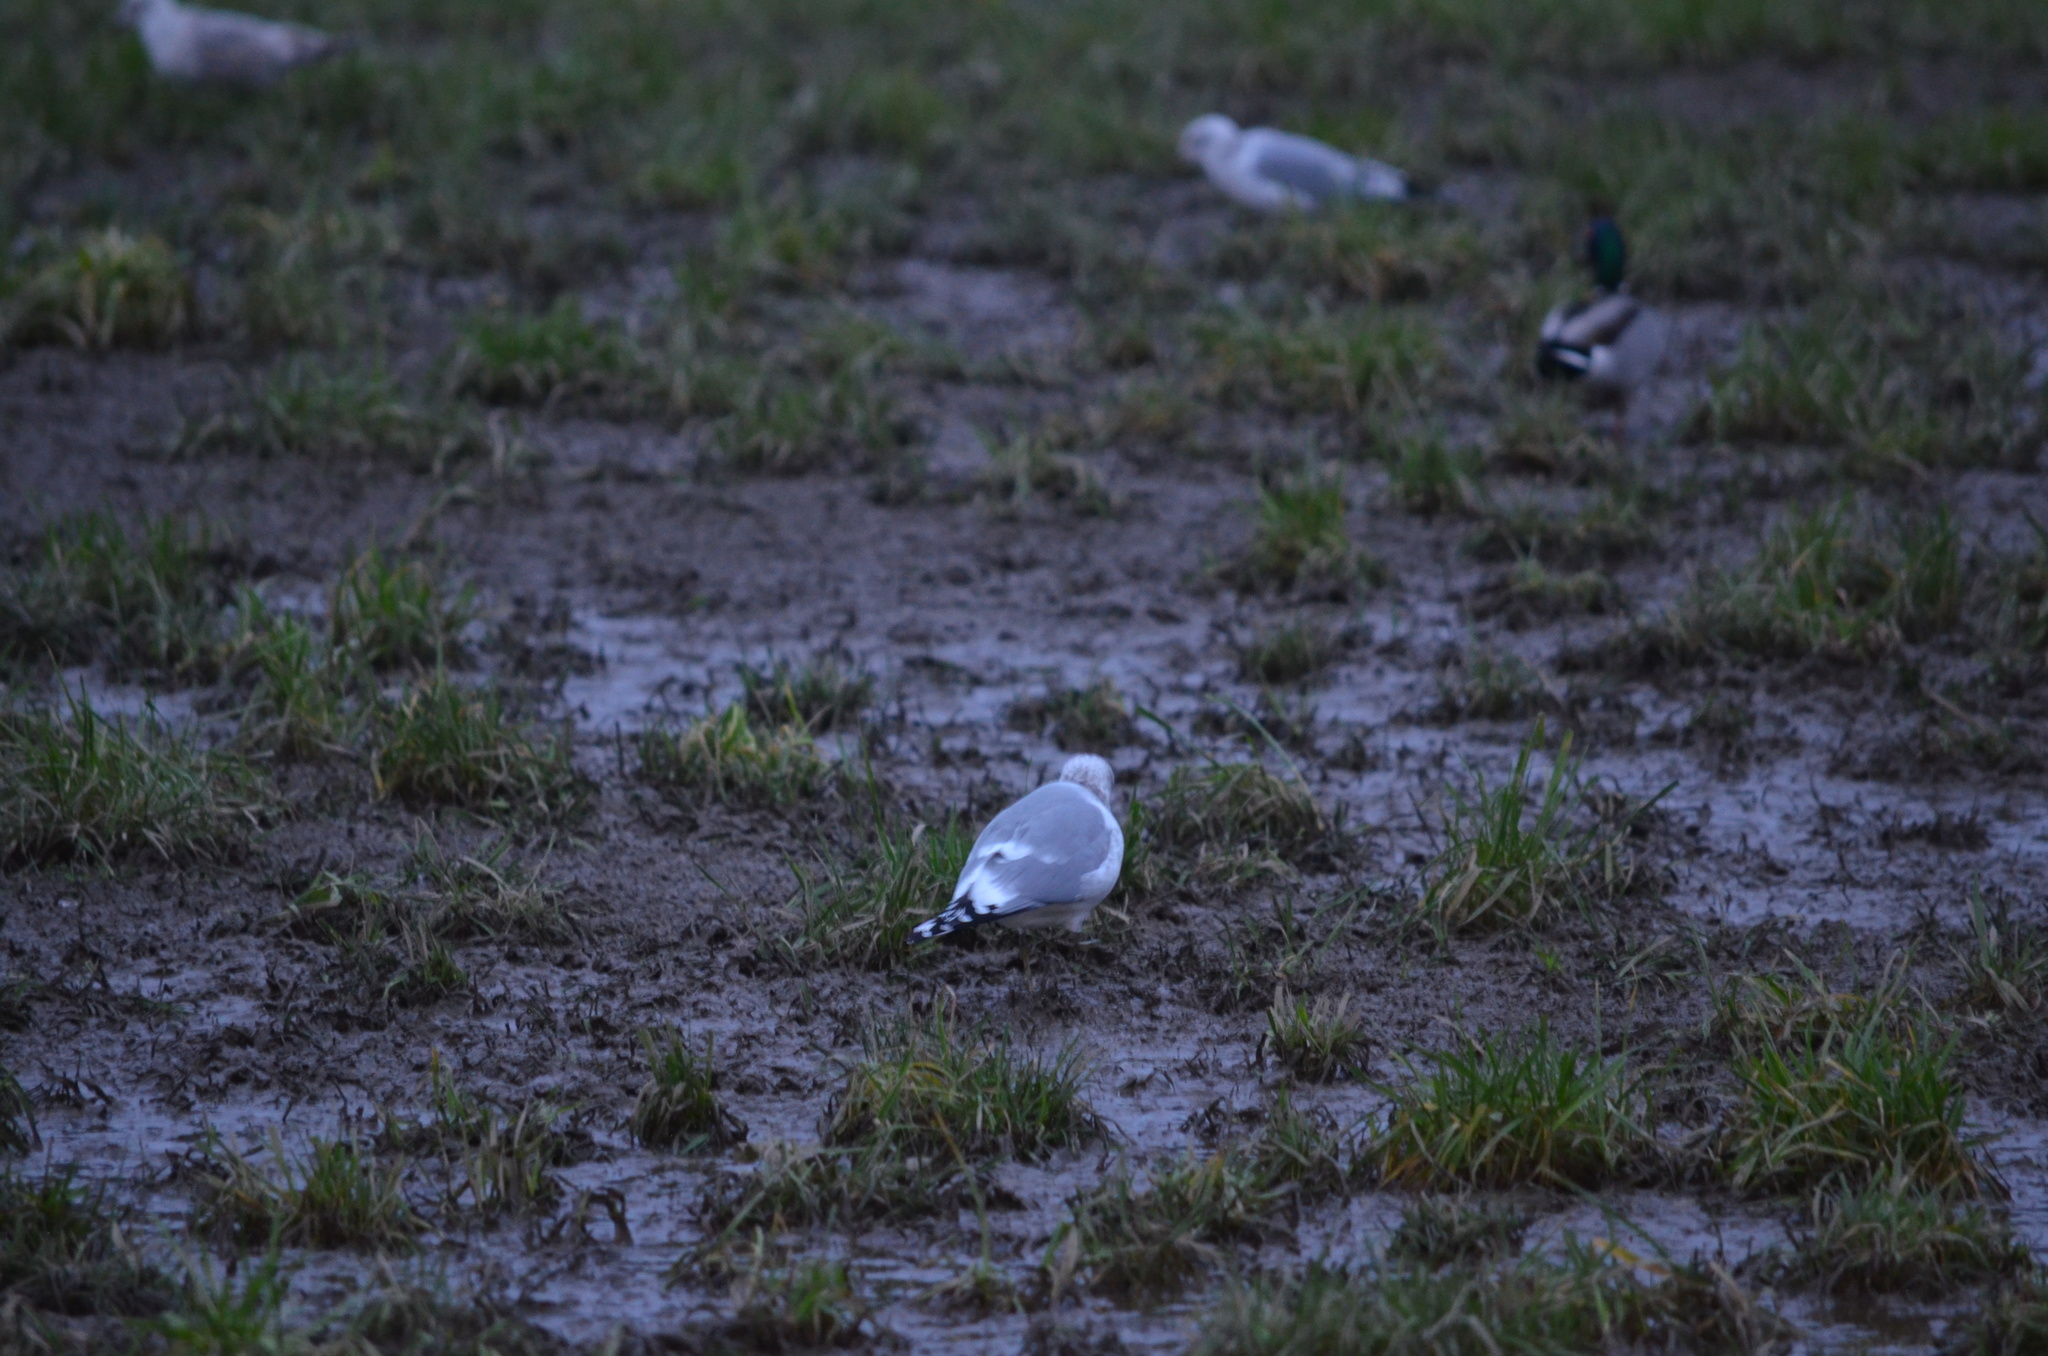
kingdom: Animalia
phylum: Chordata
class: Aves
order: Charadriiformes
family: Laridae
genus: Larus
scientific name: Larus brachyrhynchus
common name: Short-billed gull
